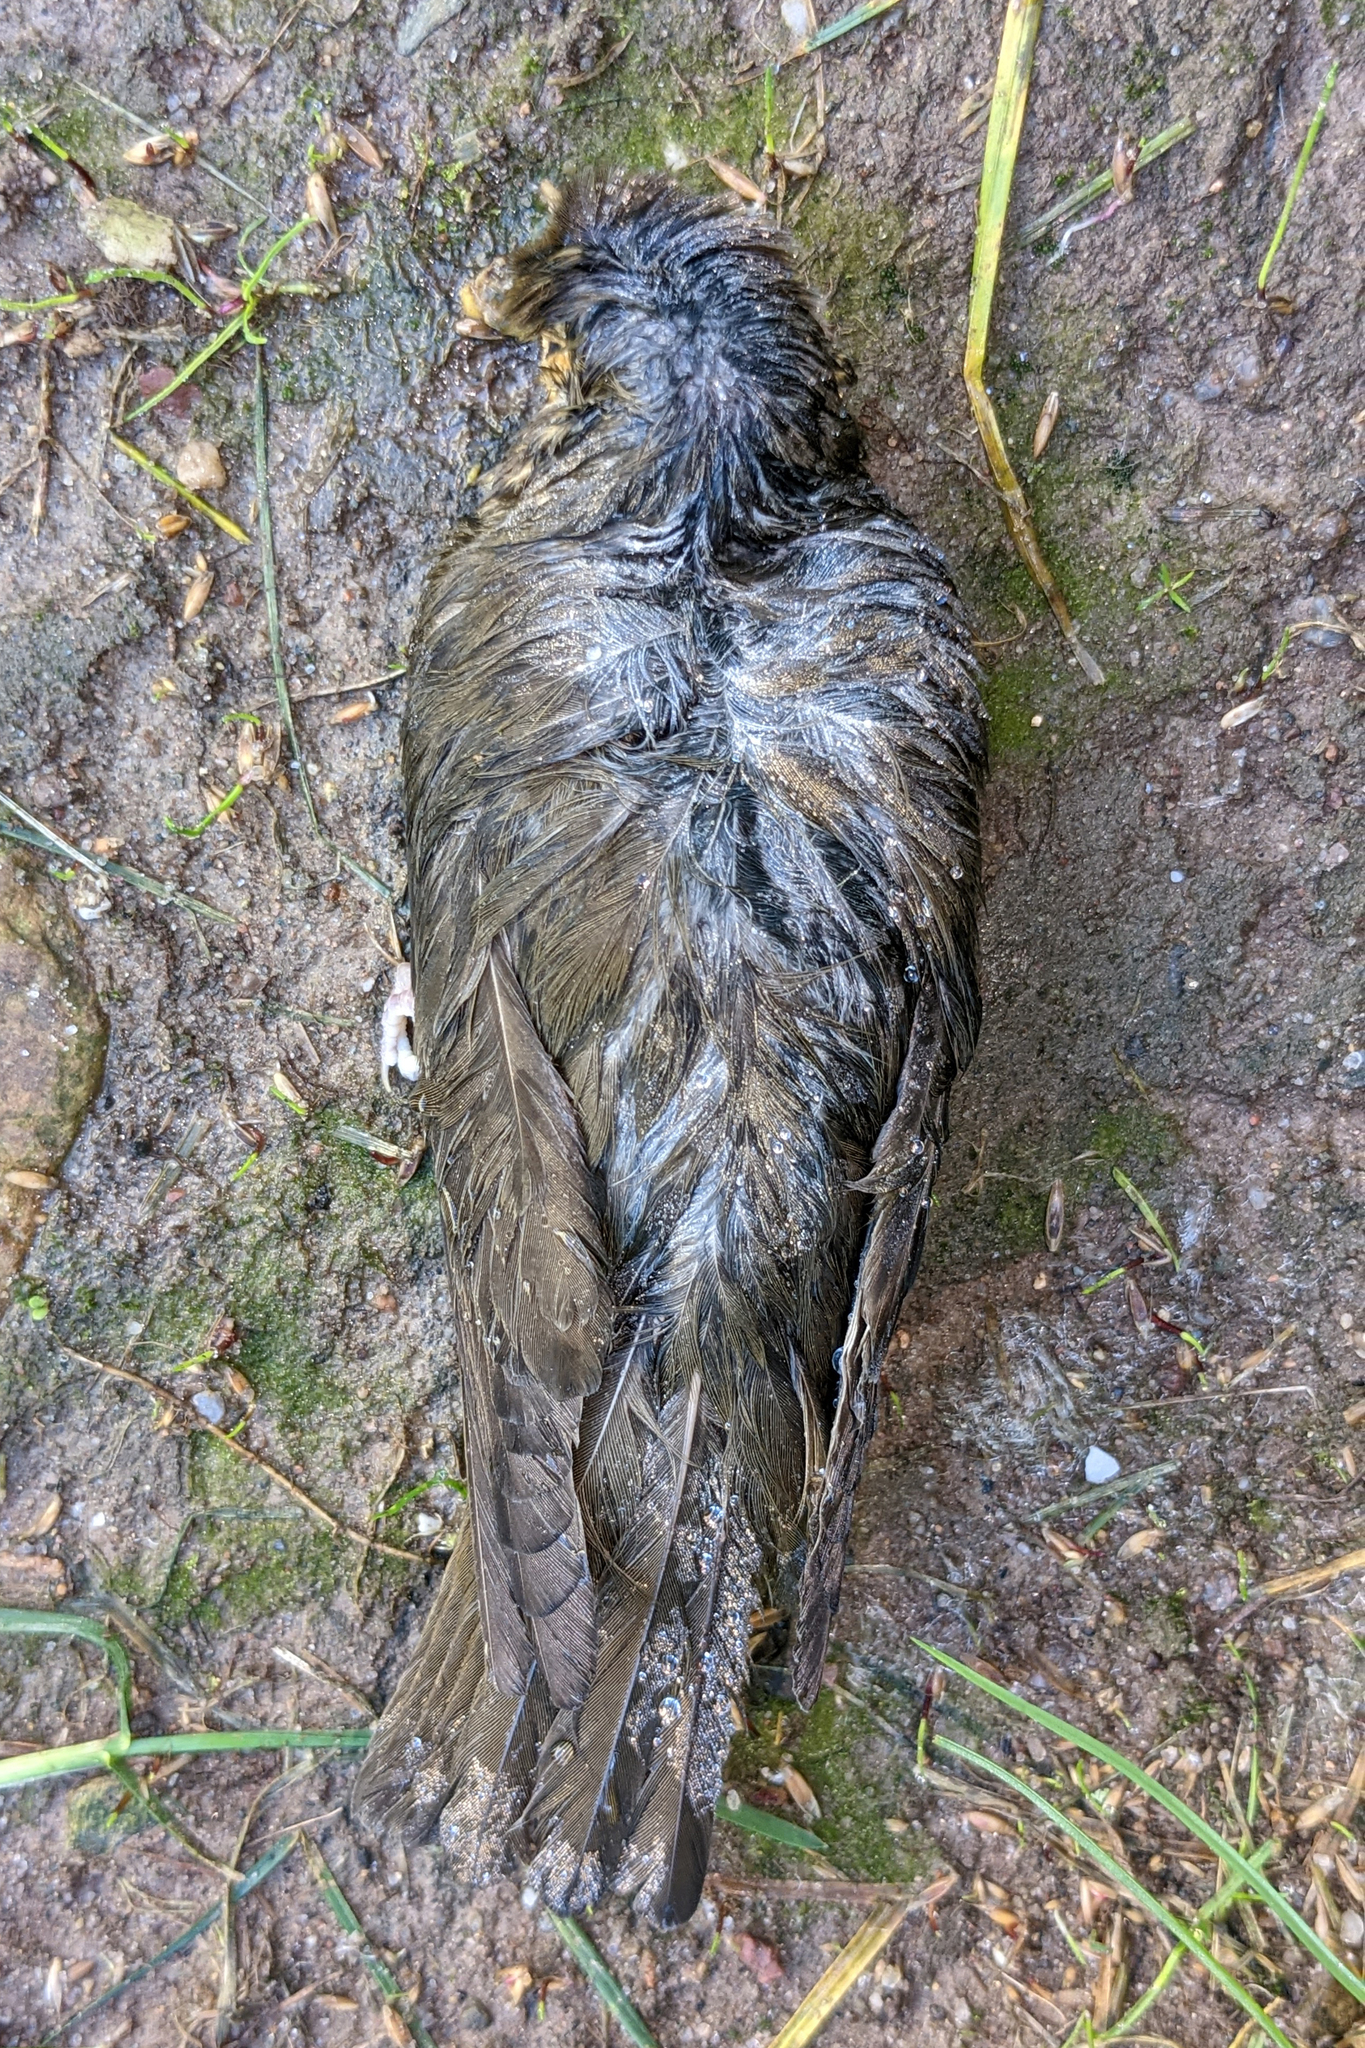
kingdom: Animalia
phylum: Chordata
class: Aves
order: Passeriformes
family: Turdidae
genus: Catharus
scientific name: Catharus ustulatus
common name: Swainson's thrush
